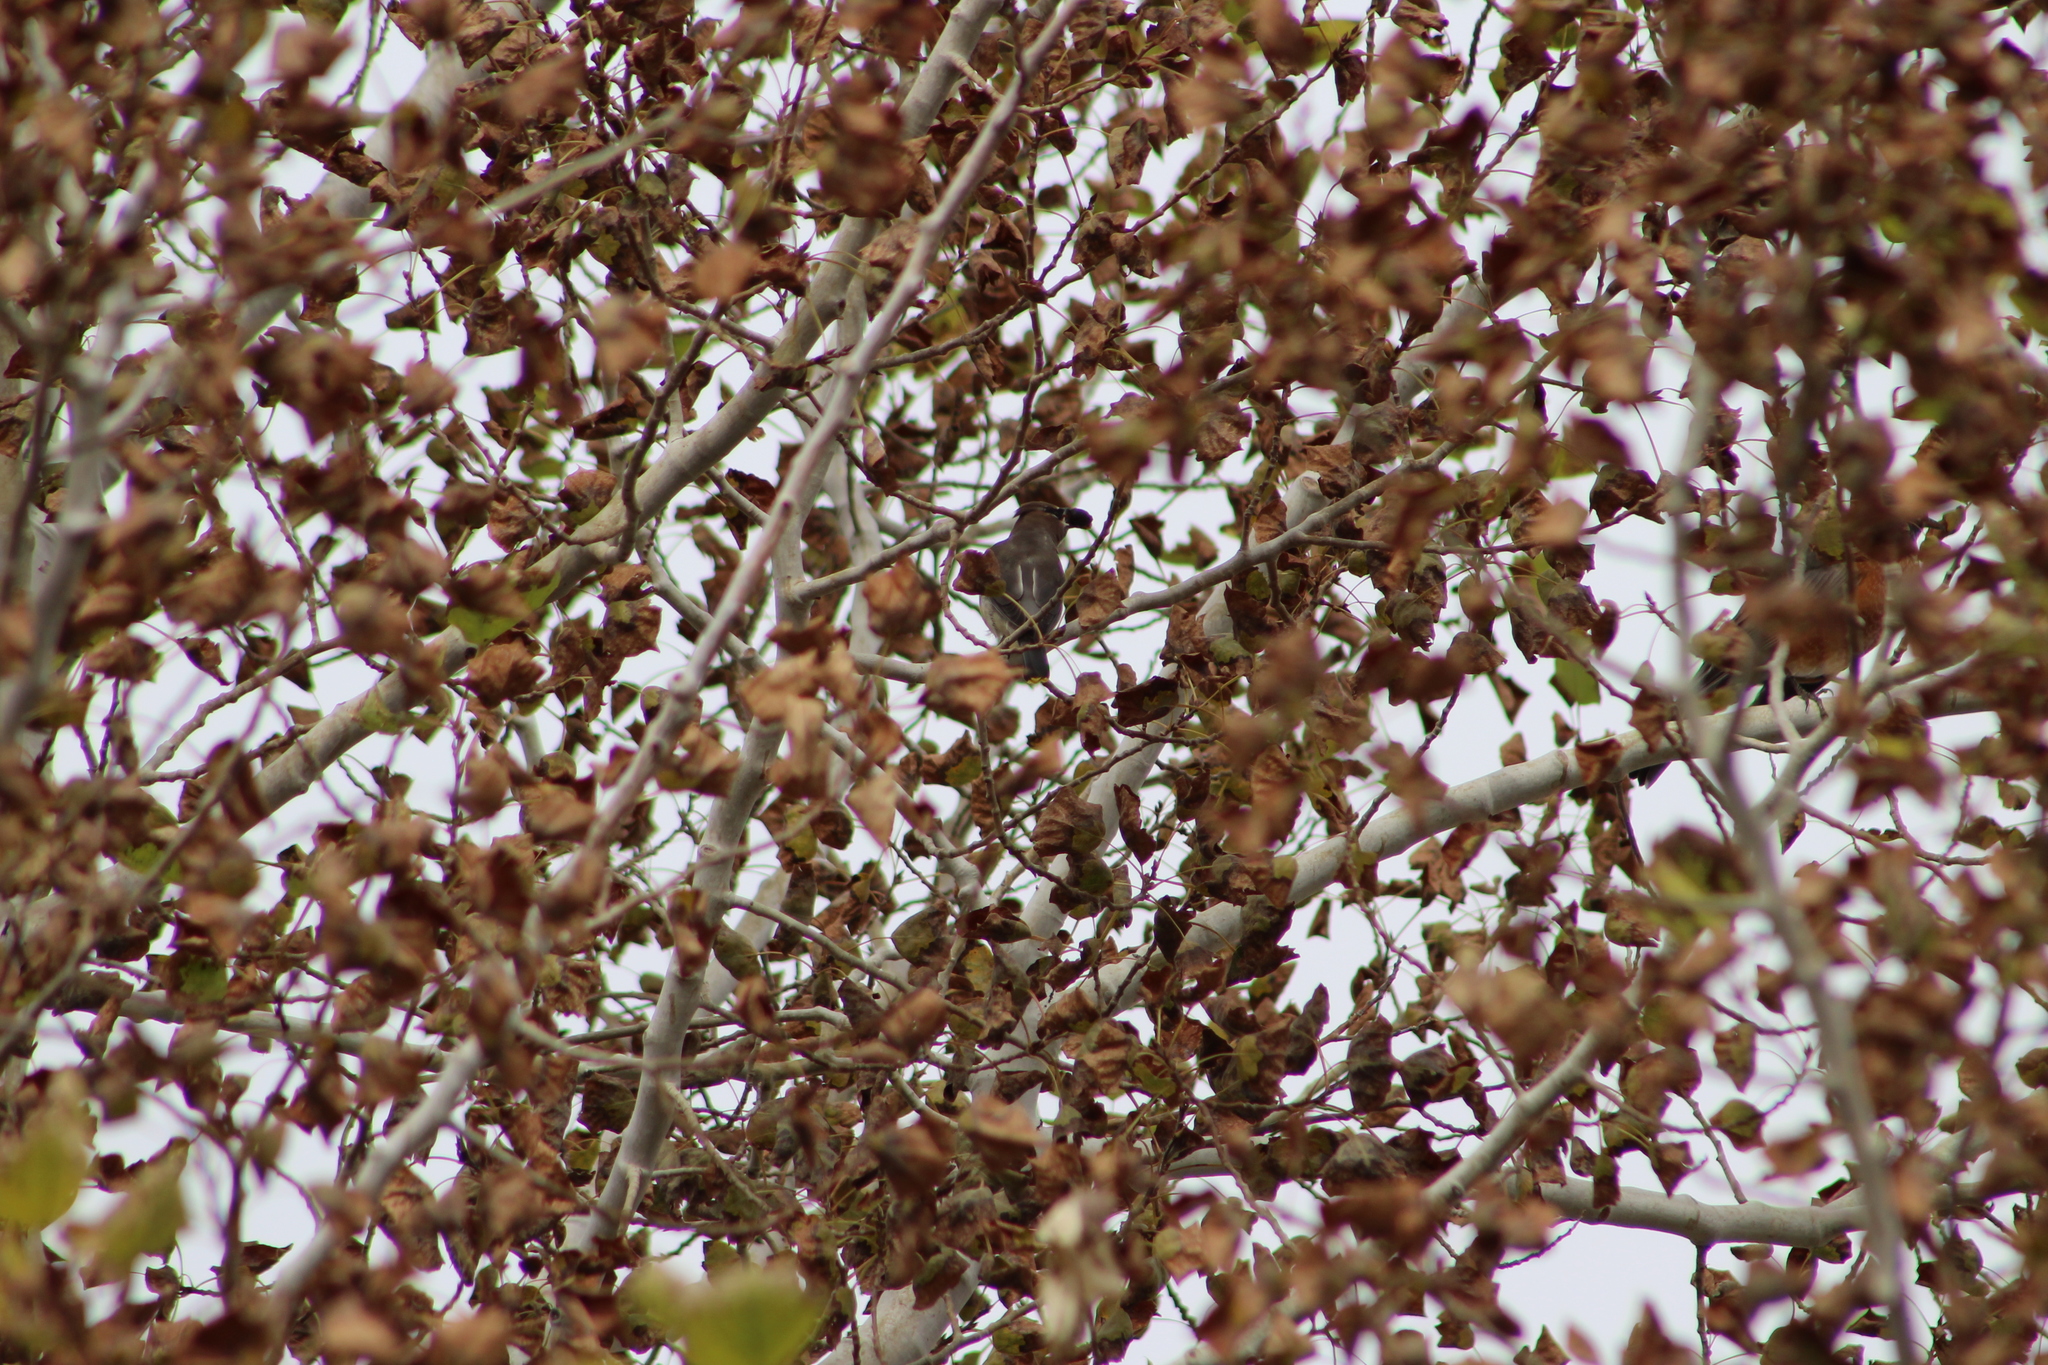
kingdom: Animalia
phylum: Chordata
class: Aves
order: Passeriformes
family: Bombycillidae
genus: Bombycilla
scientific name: Bombycilla cedrorum
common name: Cedar waxwing
